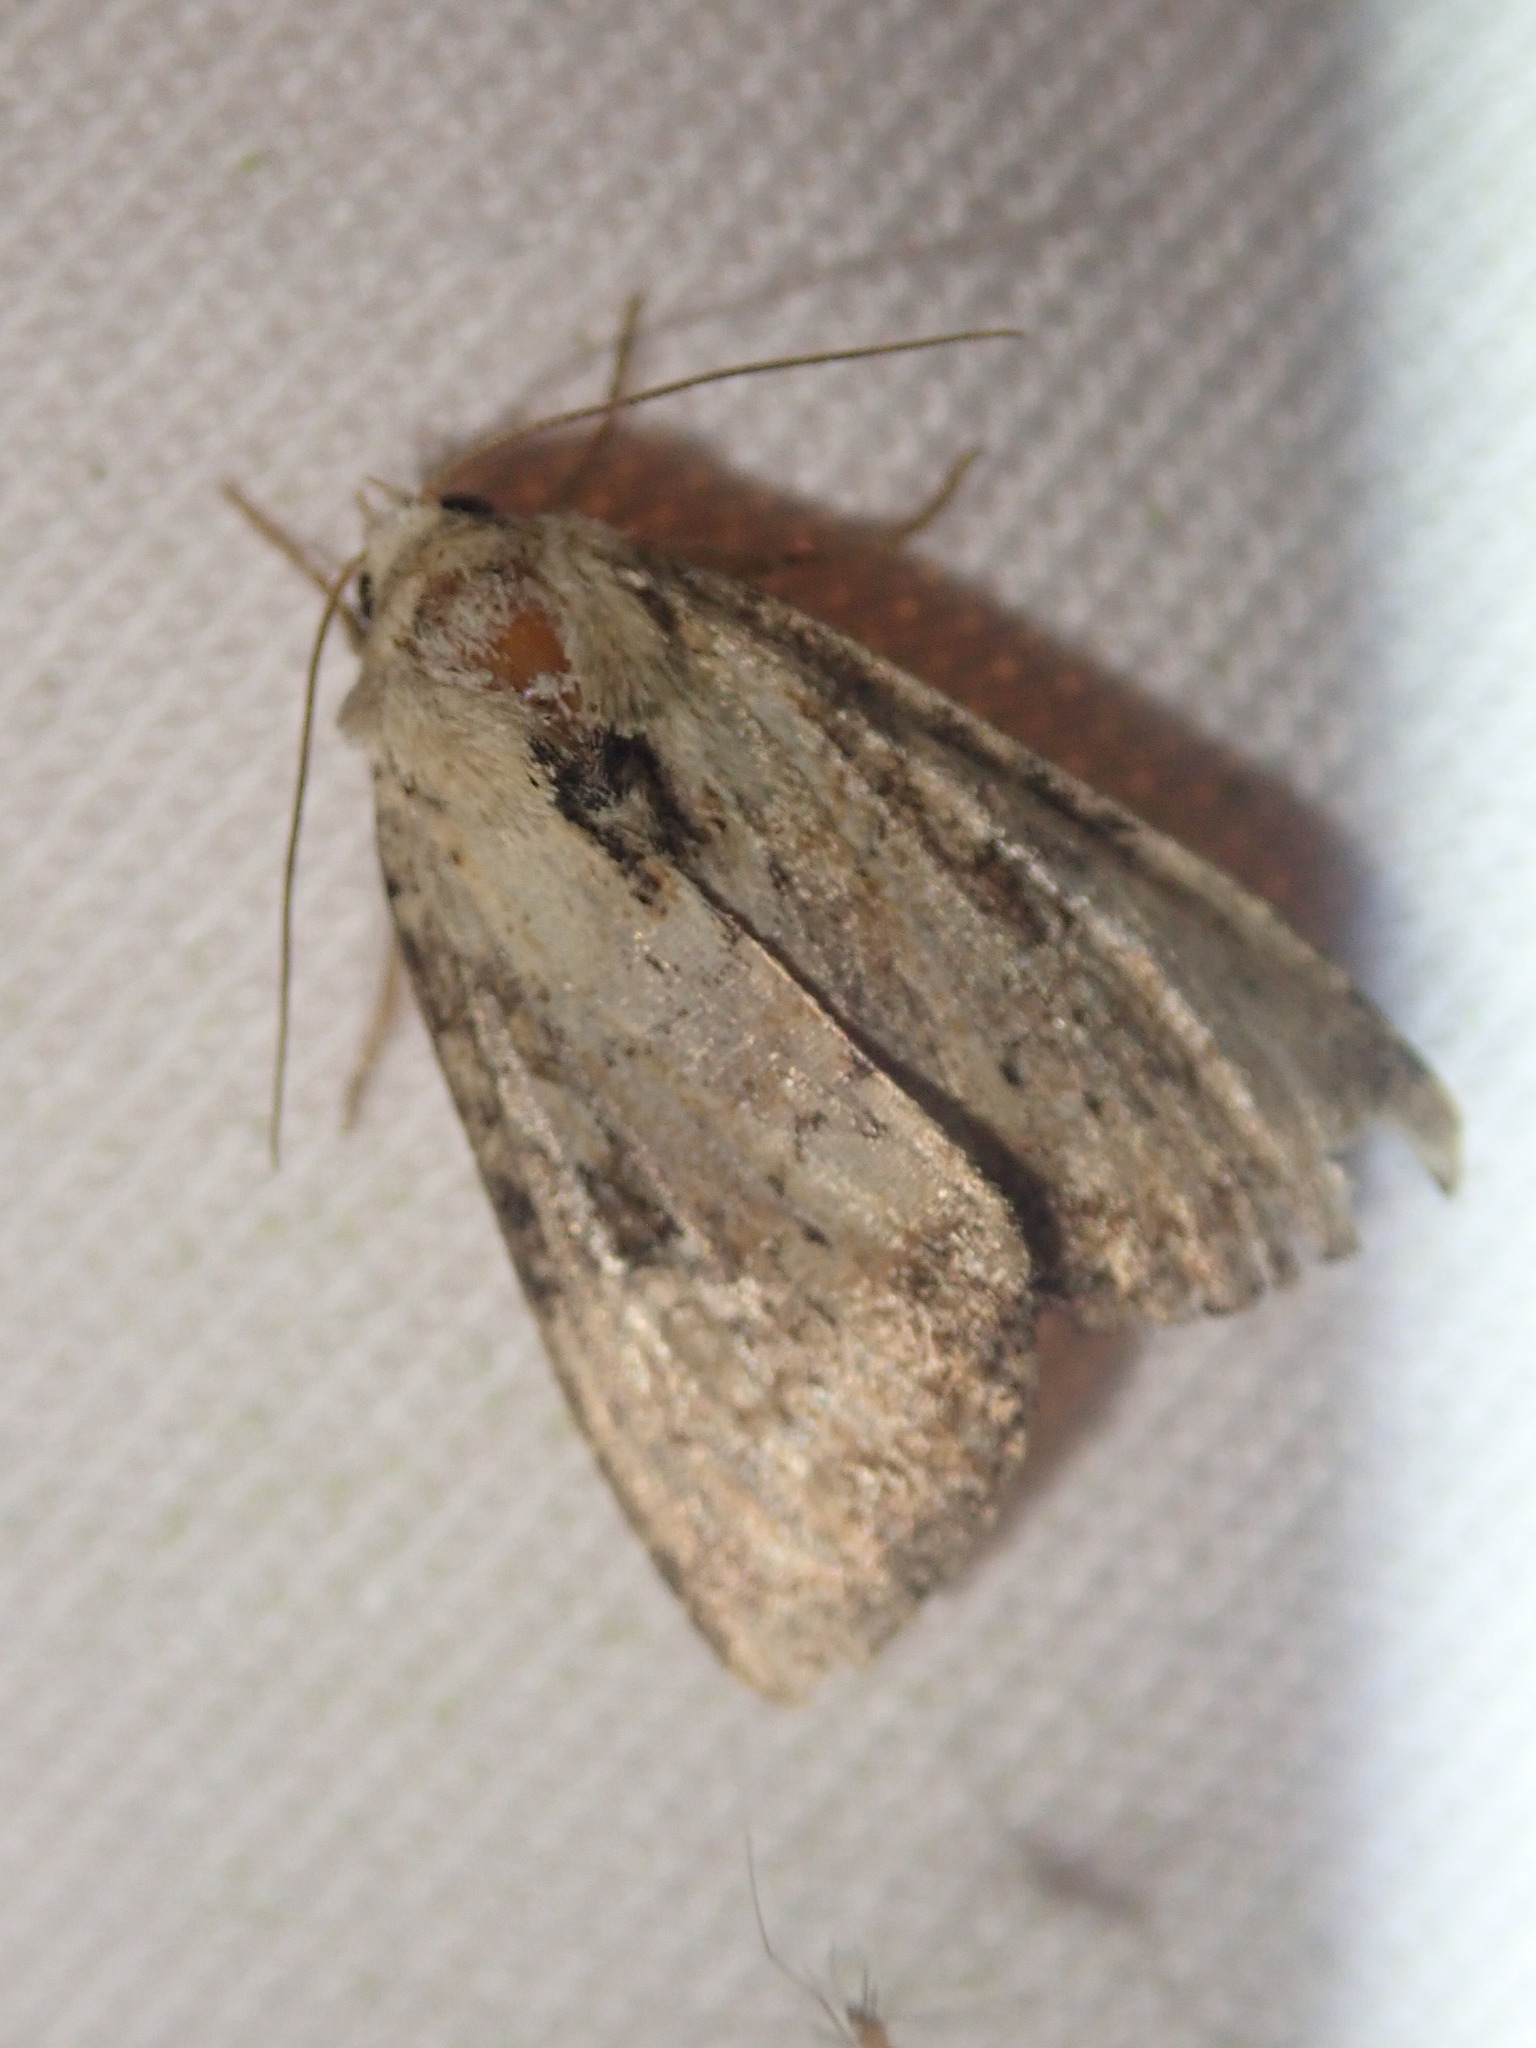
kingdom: Animalia
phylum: Arthropoda
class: Insecta
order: Lepidoptera
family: Noctuidae
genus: Loscopia
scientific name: Loscopia scolopacina
